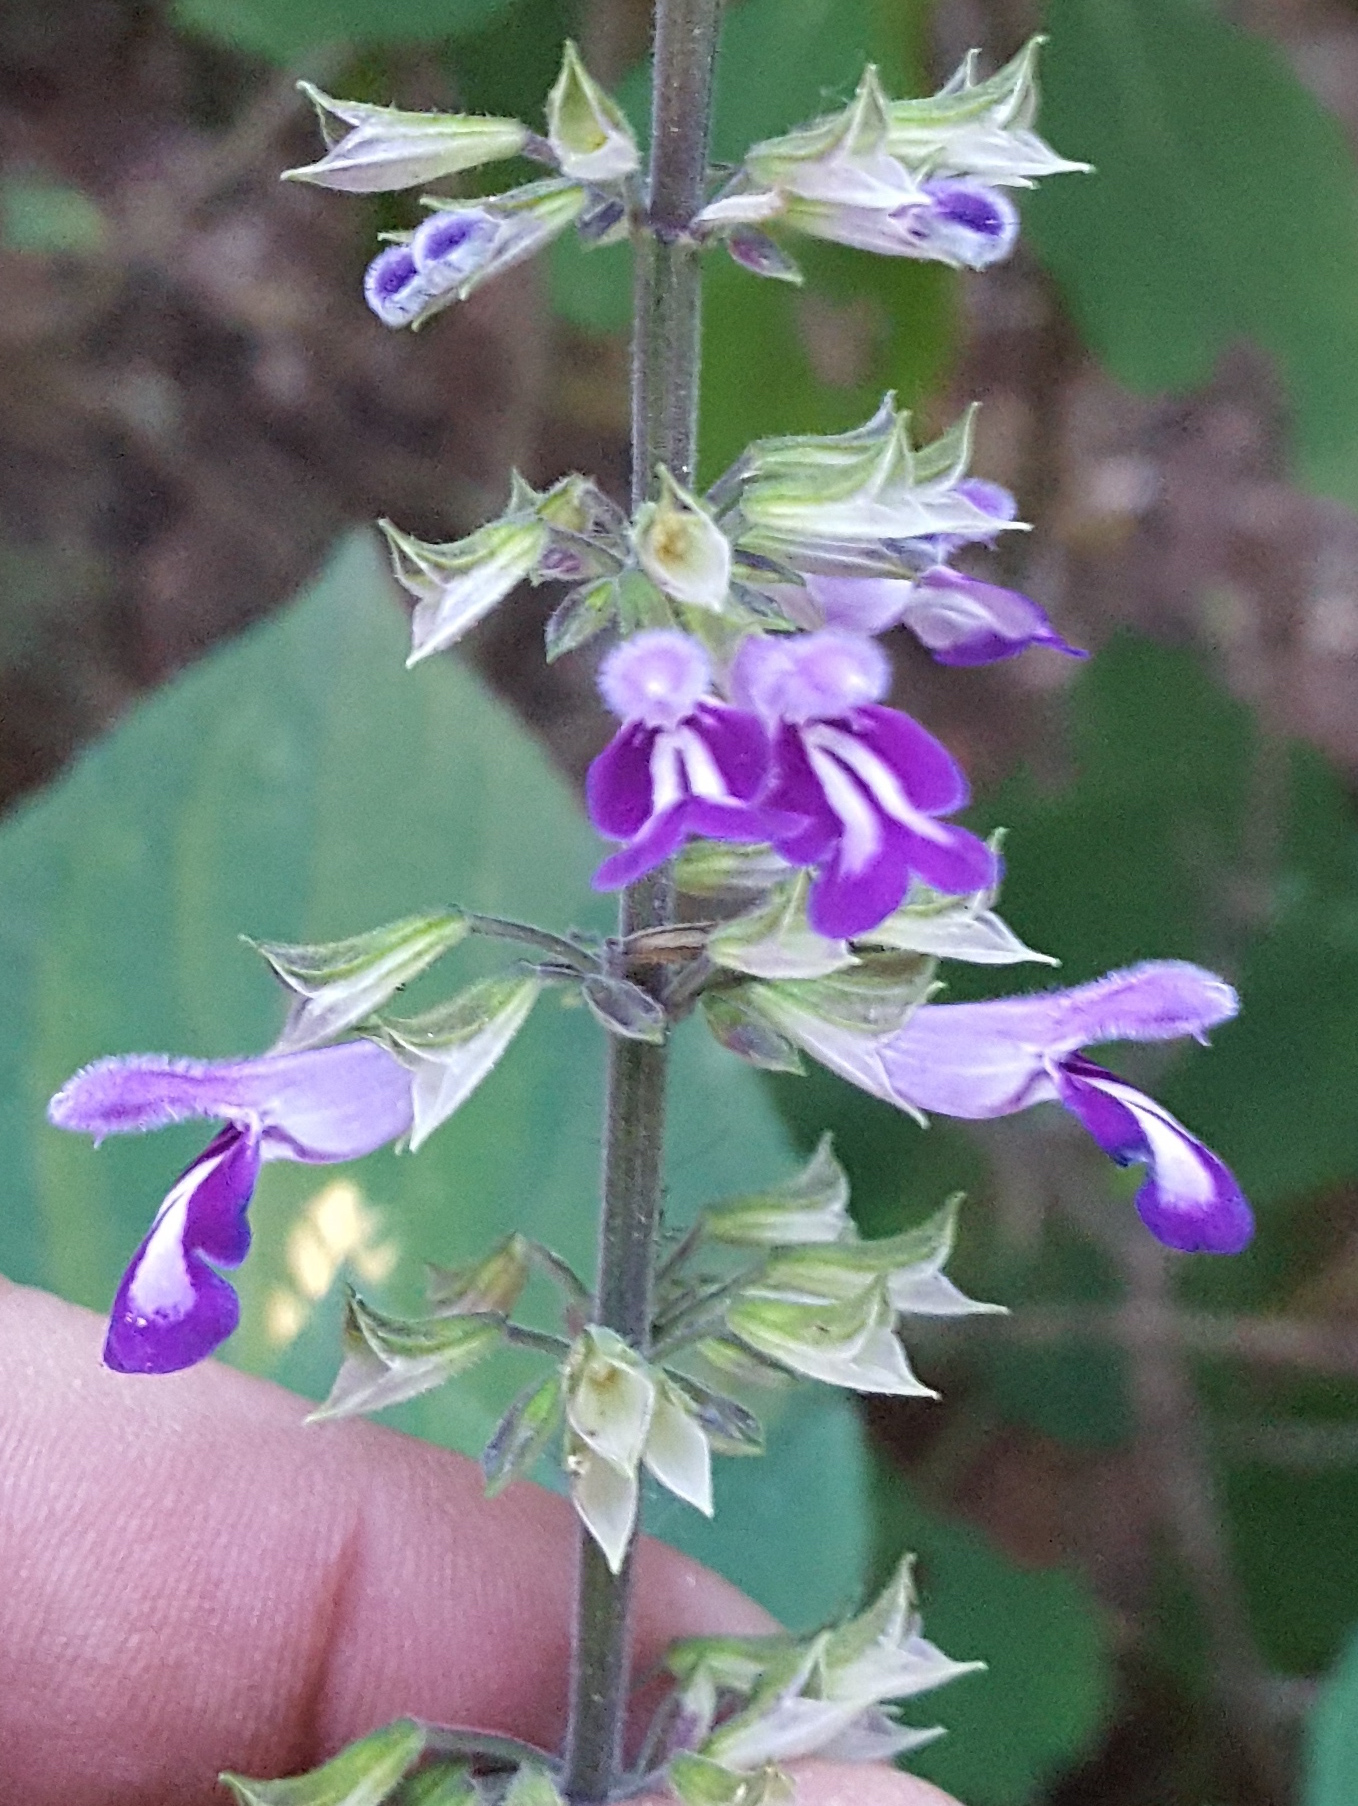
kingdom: Plantae
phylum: Tracheophyta
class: Magnoliopsida
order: Lamiales
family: Lamiaceae
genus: Salvia
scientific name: Salvia carnea
